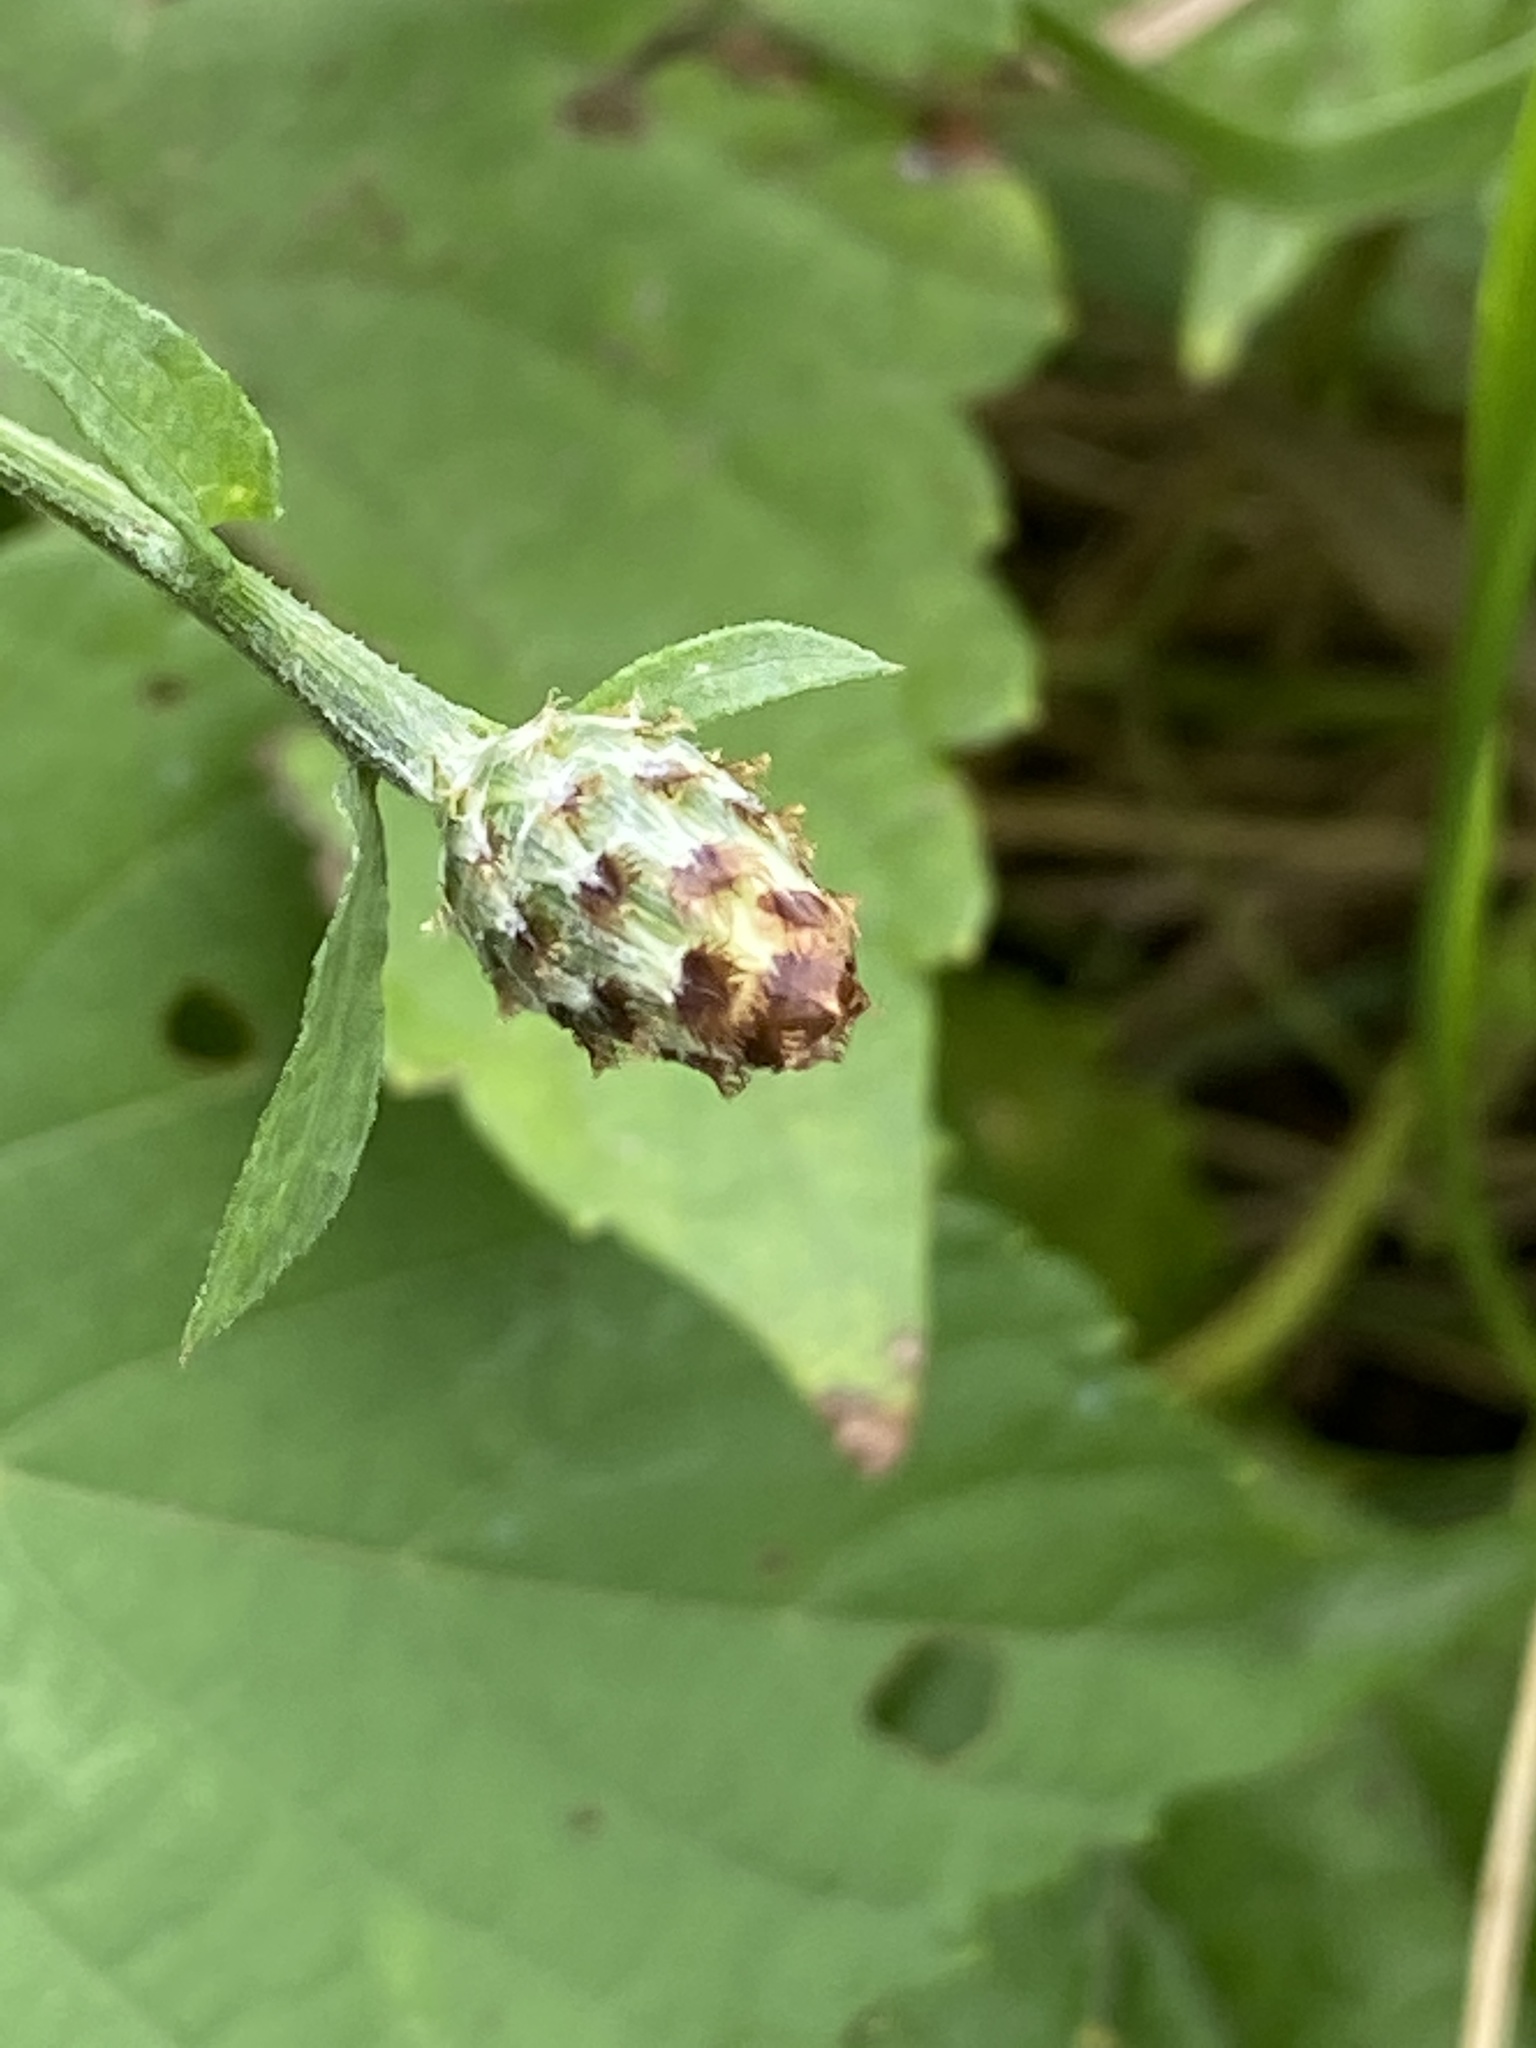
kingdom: Plantae
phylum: Tracheophyta
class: Magnoliopsida
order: Asterales
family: Asteraceae
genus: Centaurea
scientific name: Centaurea nigrescens
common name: Tyrol knapweed
